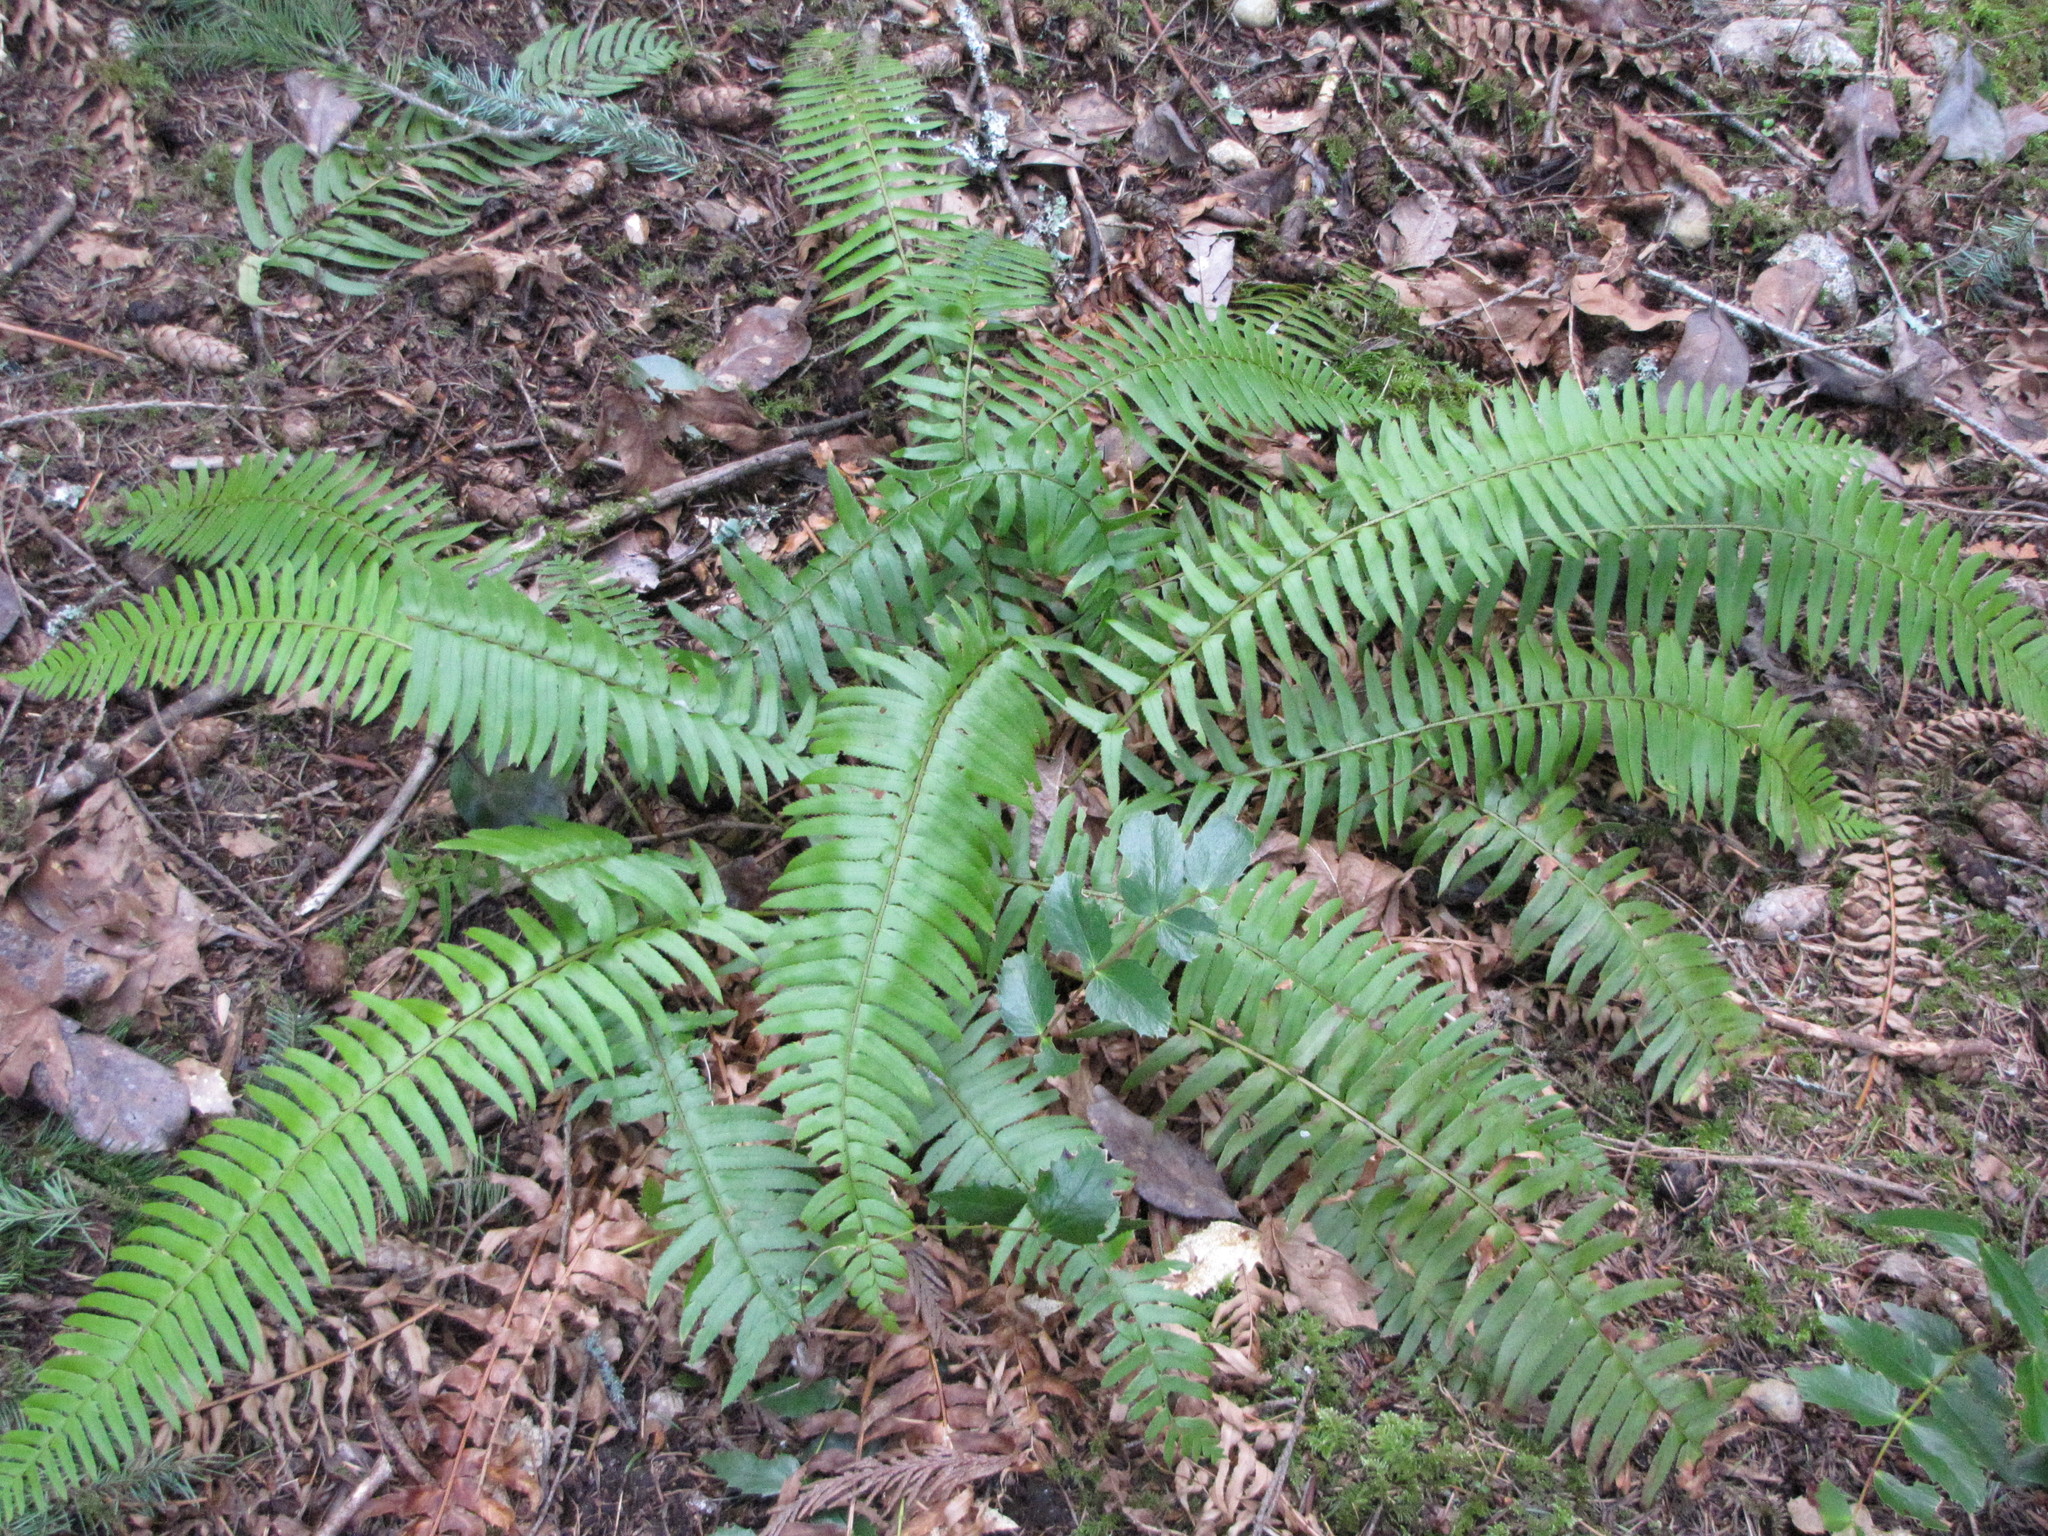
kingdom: Plantae
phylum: Tracheophyta
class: Polypodiopsida
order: Polypodiales
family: Dryopteridaceae
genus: Polystichum
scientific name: Polystichum munitum
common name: Western sword-fern
